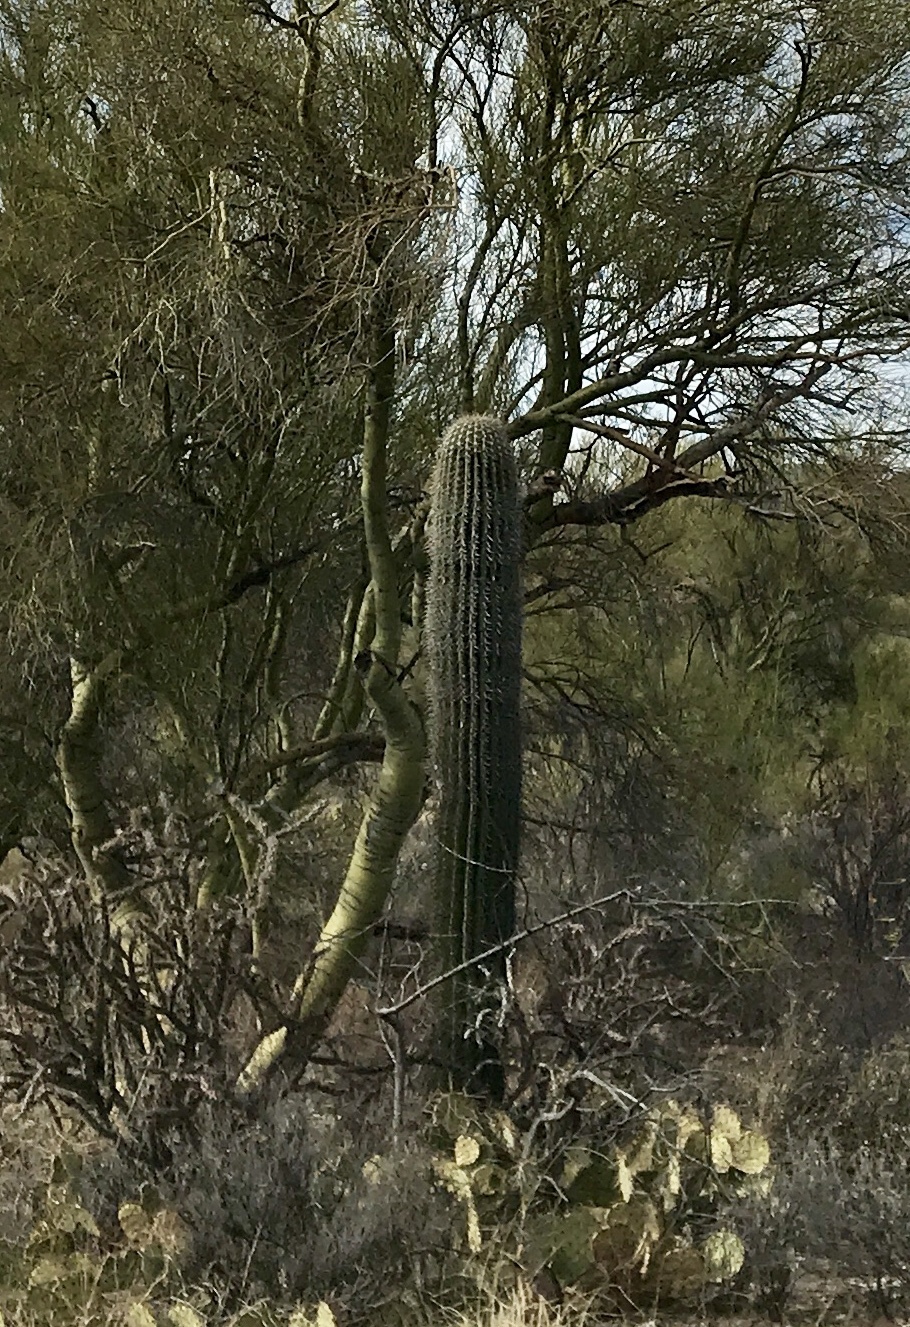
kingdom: Plantae
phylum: Tracheophyta
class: Magnoliopsida
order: Caryophyllales
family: Cactaceae
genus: Carnegiea
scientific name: Carnegiea gigantea
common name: Saguaro
